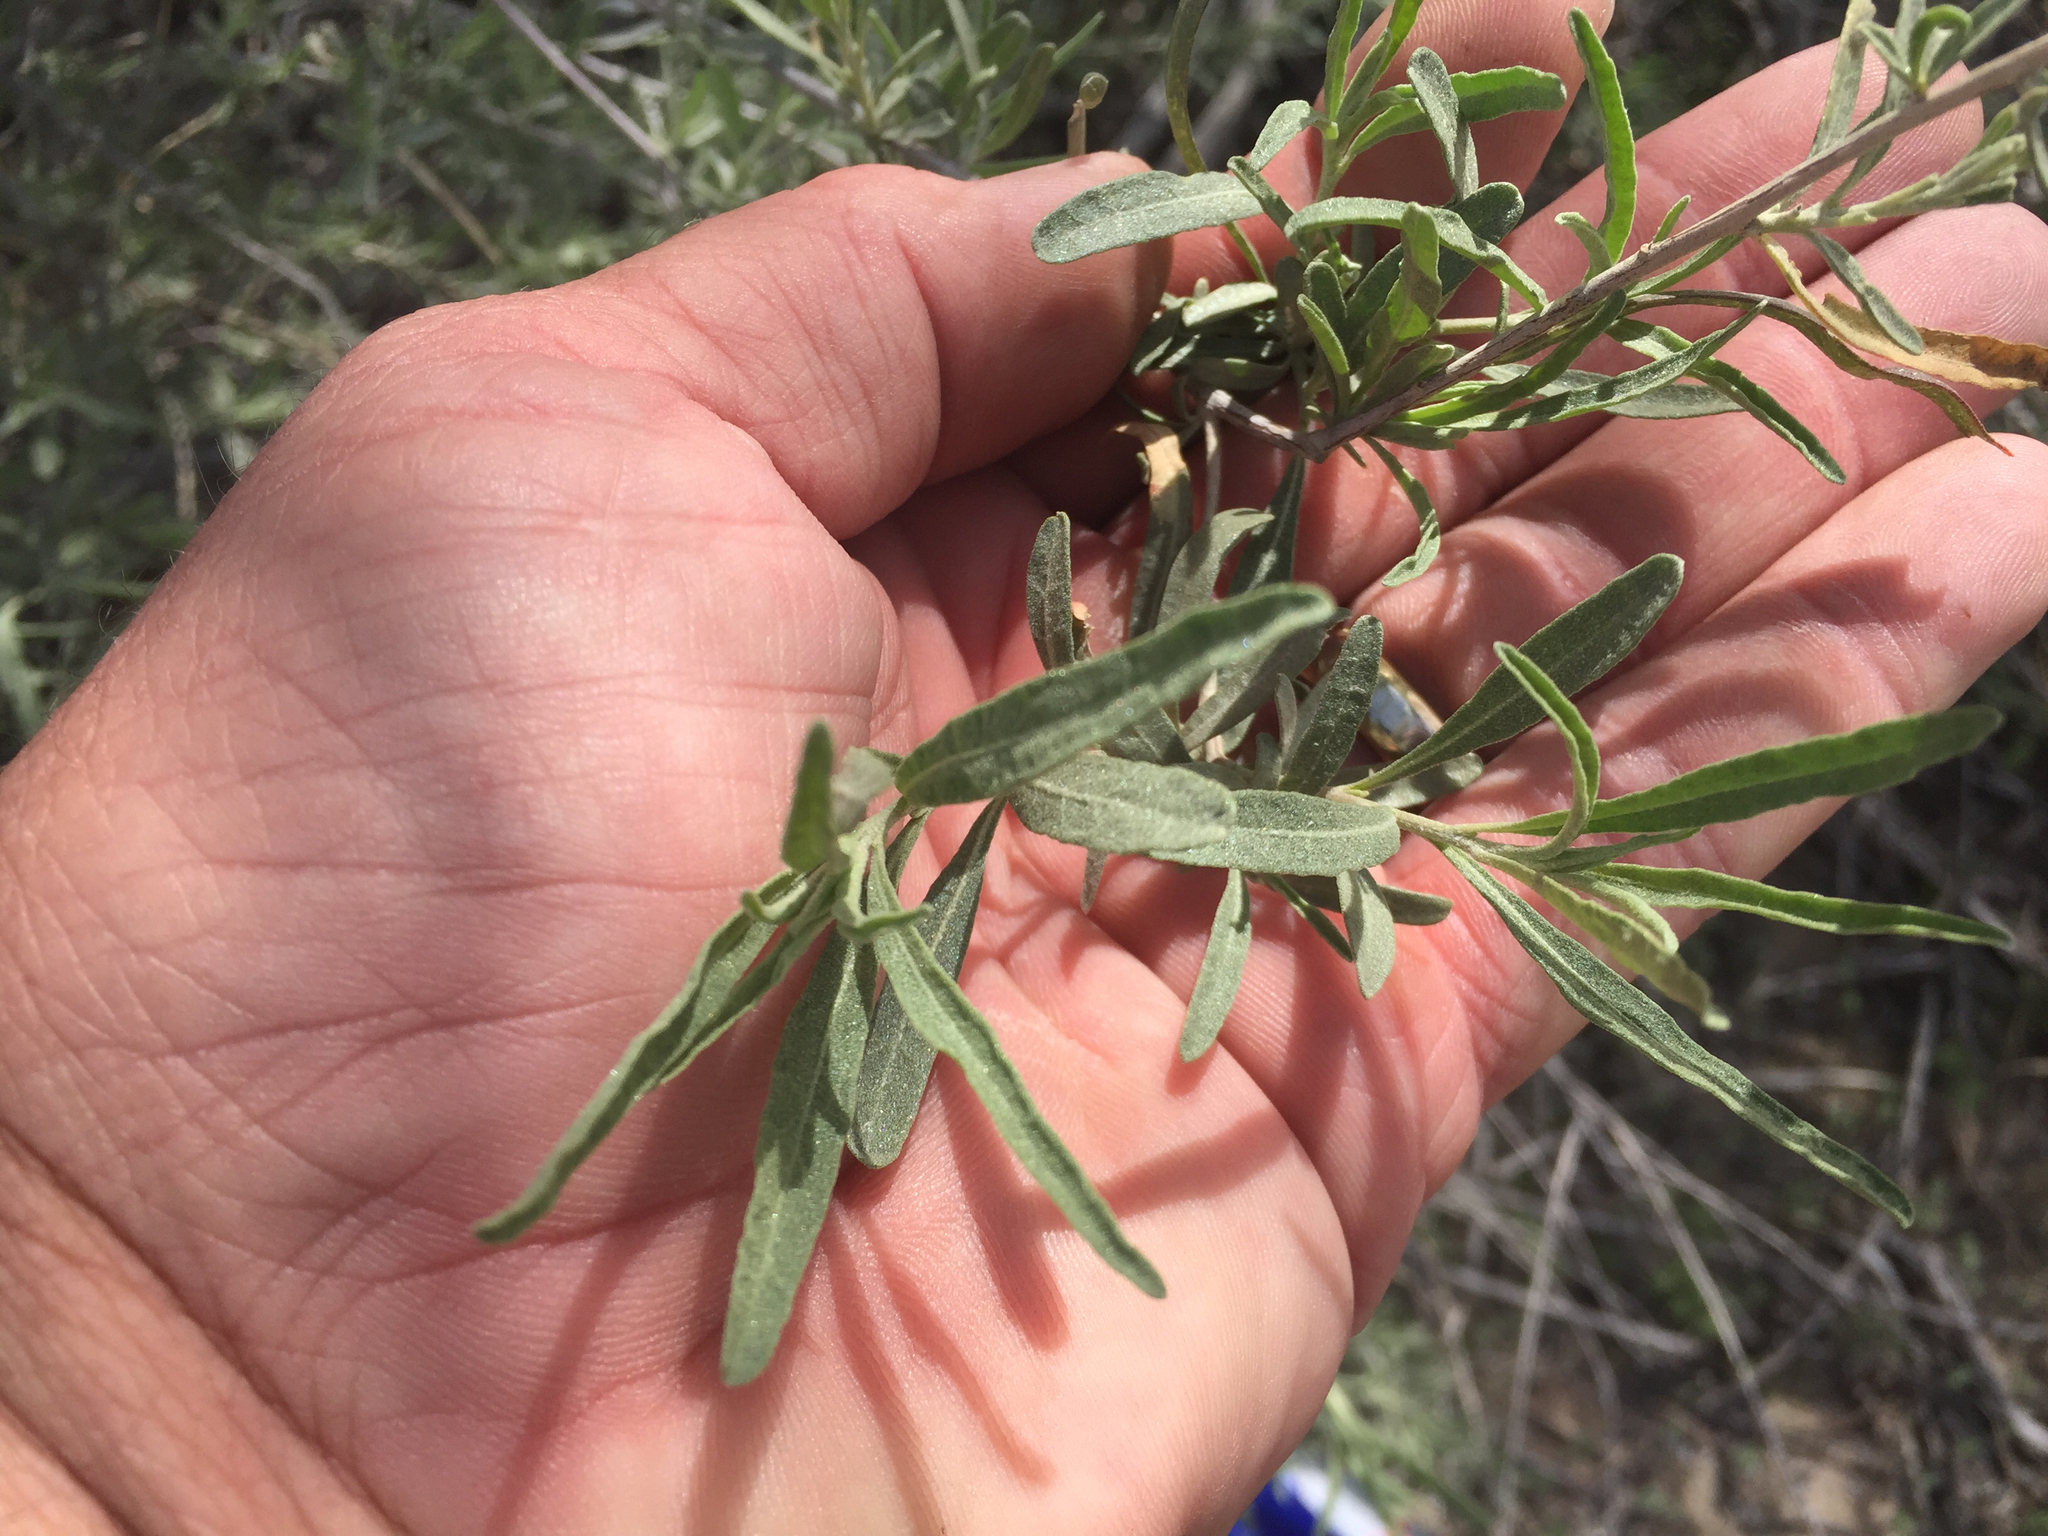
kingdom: Plantae
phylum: Tracheophyta
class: Magnoliopsida
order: Caryophyllales
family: Amaranthaceae
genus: Atriplex
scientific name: Atriplex canescens
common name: Four-wing saltbush
